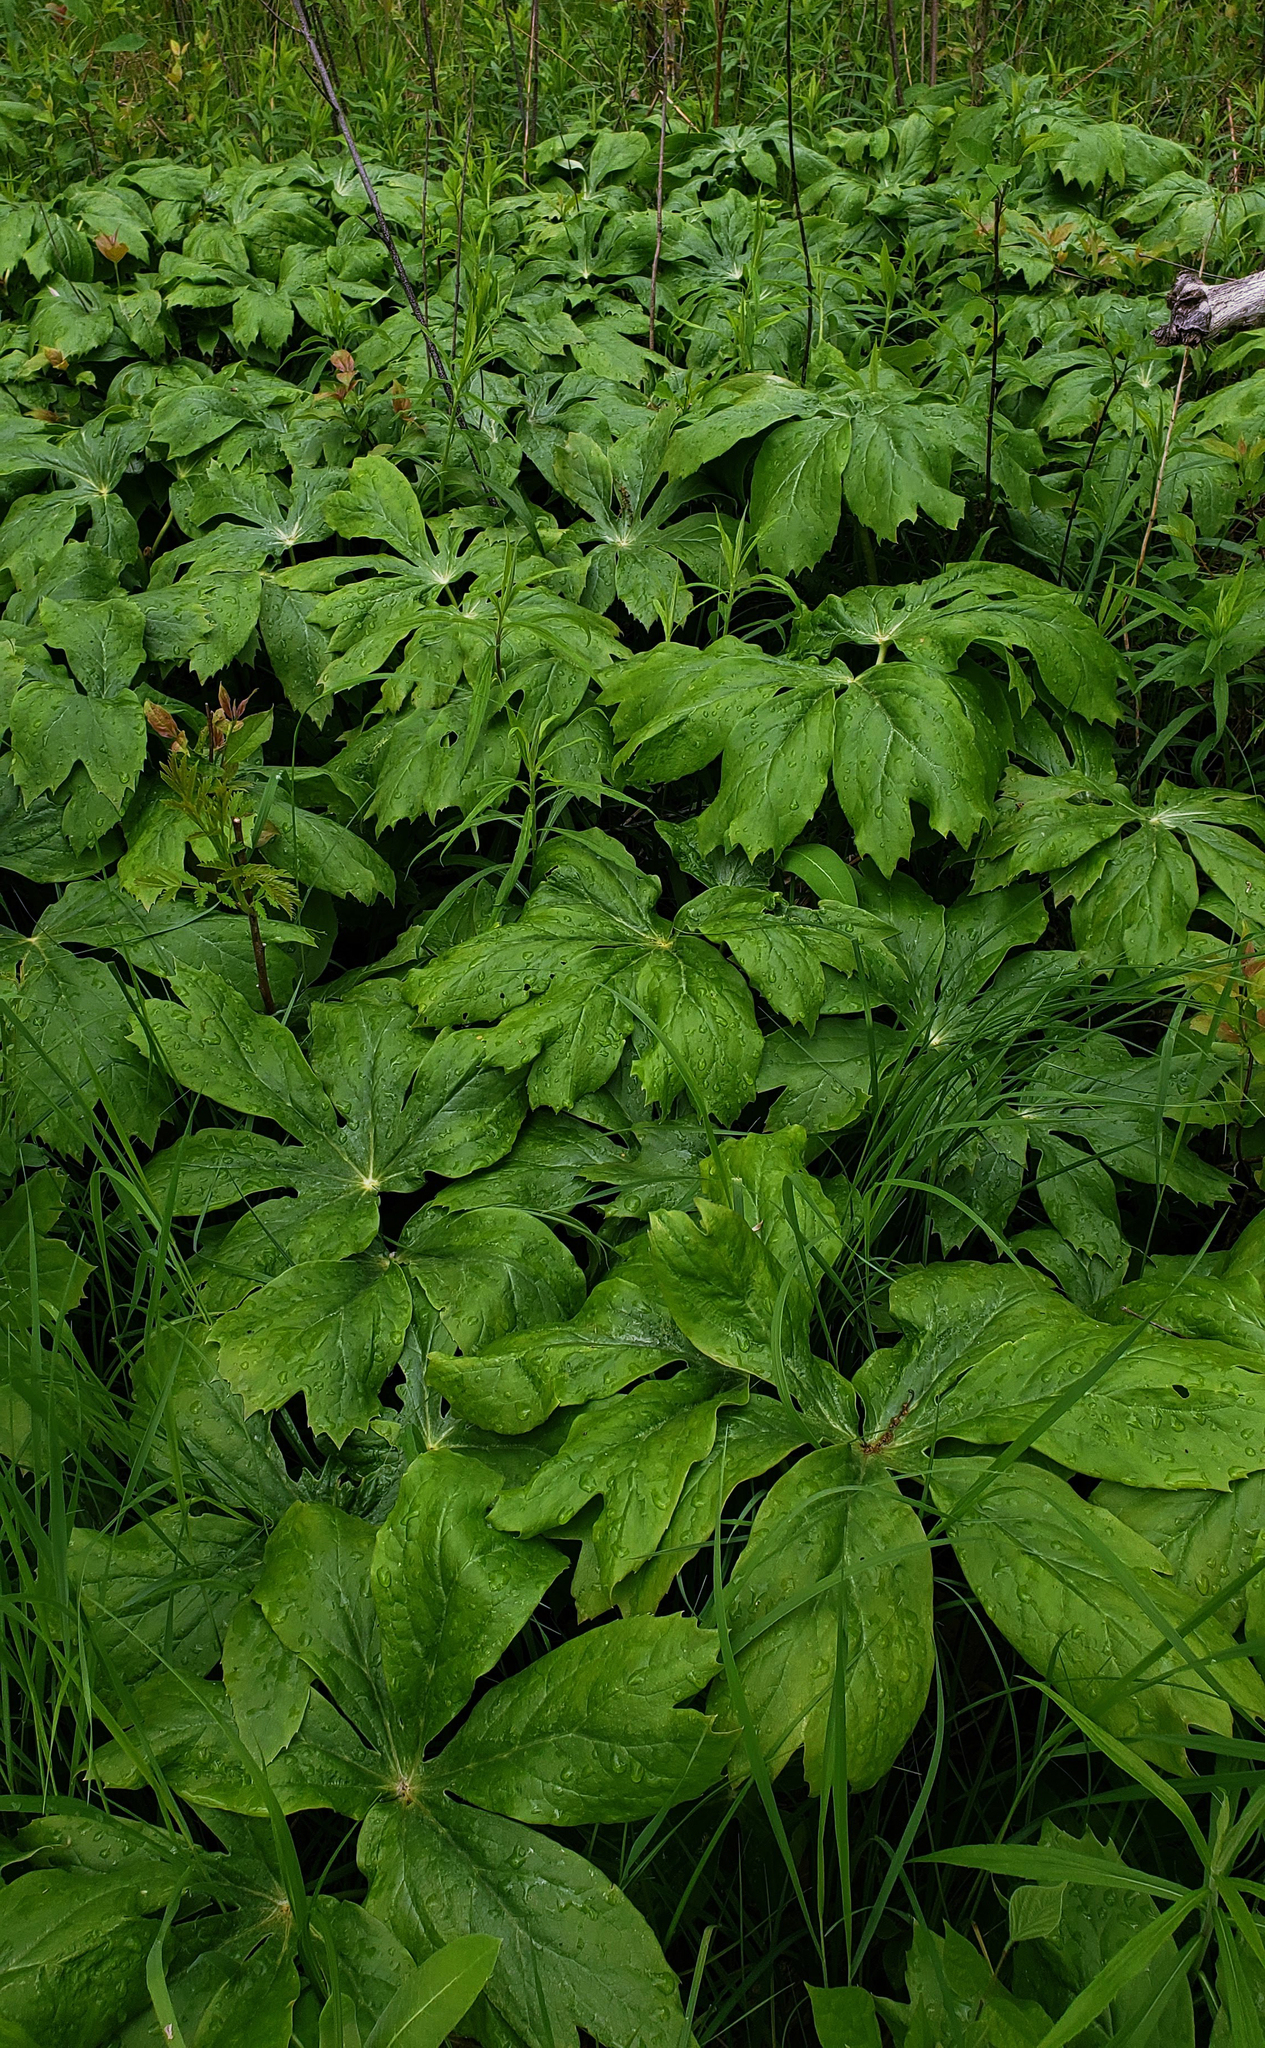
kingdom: Plantae
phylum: Tracheophyta
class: Magnoliopsida
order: Ranunculales
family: Berberidaceae
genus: Podophyllum
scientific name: Podophyllum peltatum
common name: Wild mandrake
